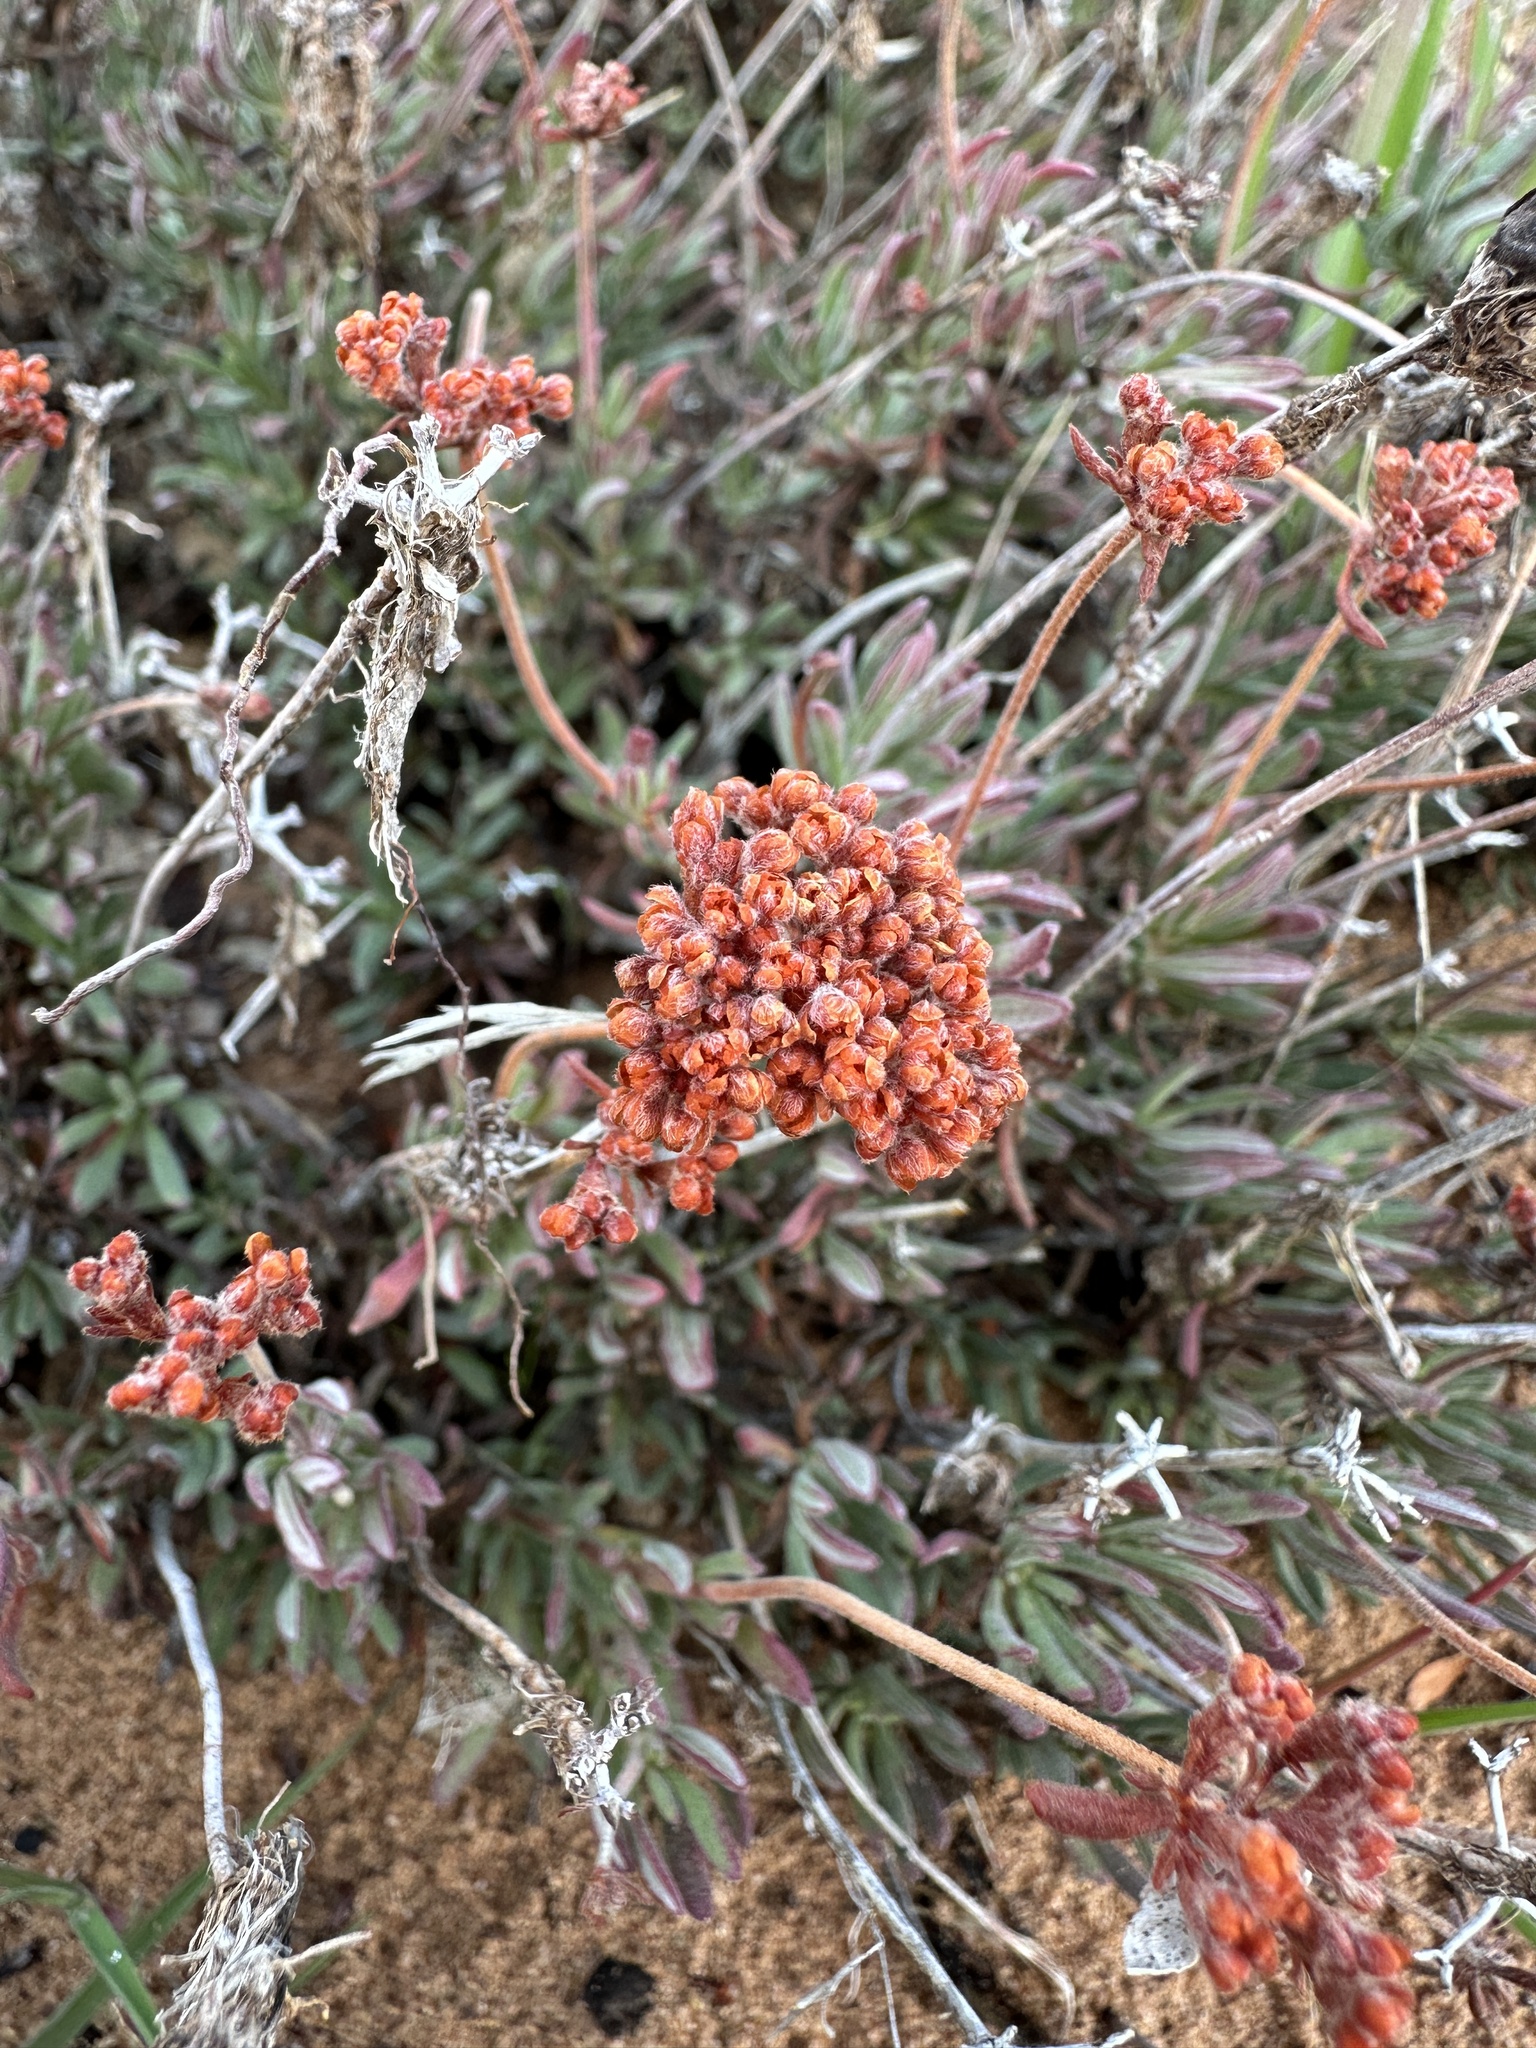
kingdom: Plantae
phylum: Tracheophyta
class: Magnoliopsida
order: Caryophyllales
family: Polygonaceae
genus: Eriogonum
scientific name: Eriogonum fasciculatum
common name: California wild buckwheat
